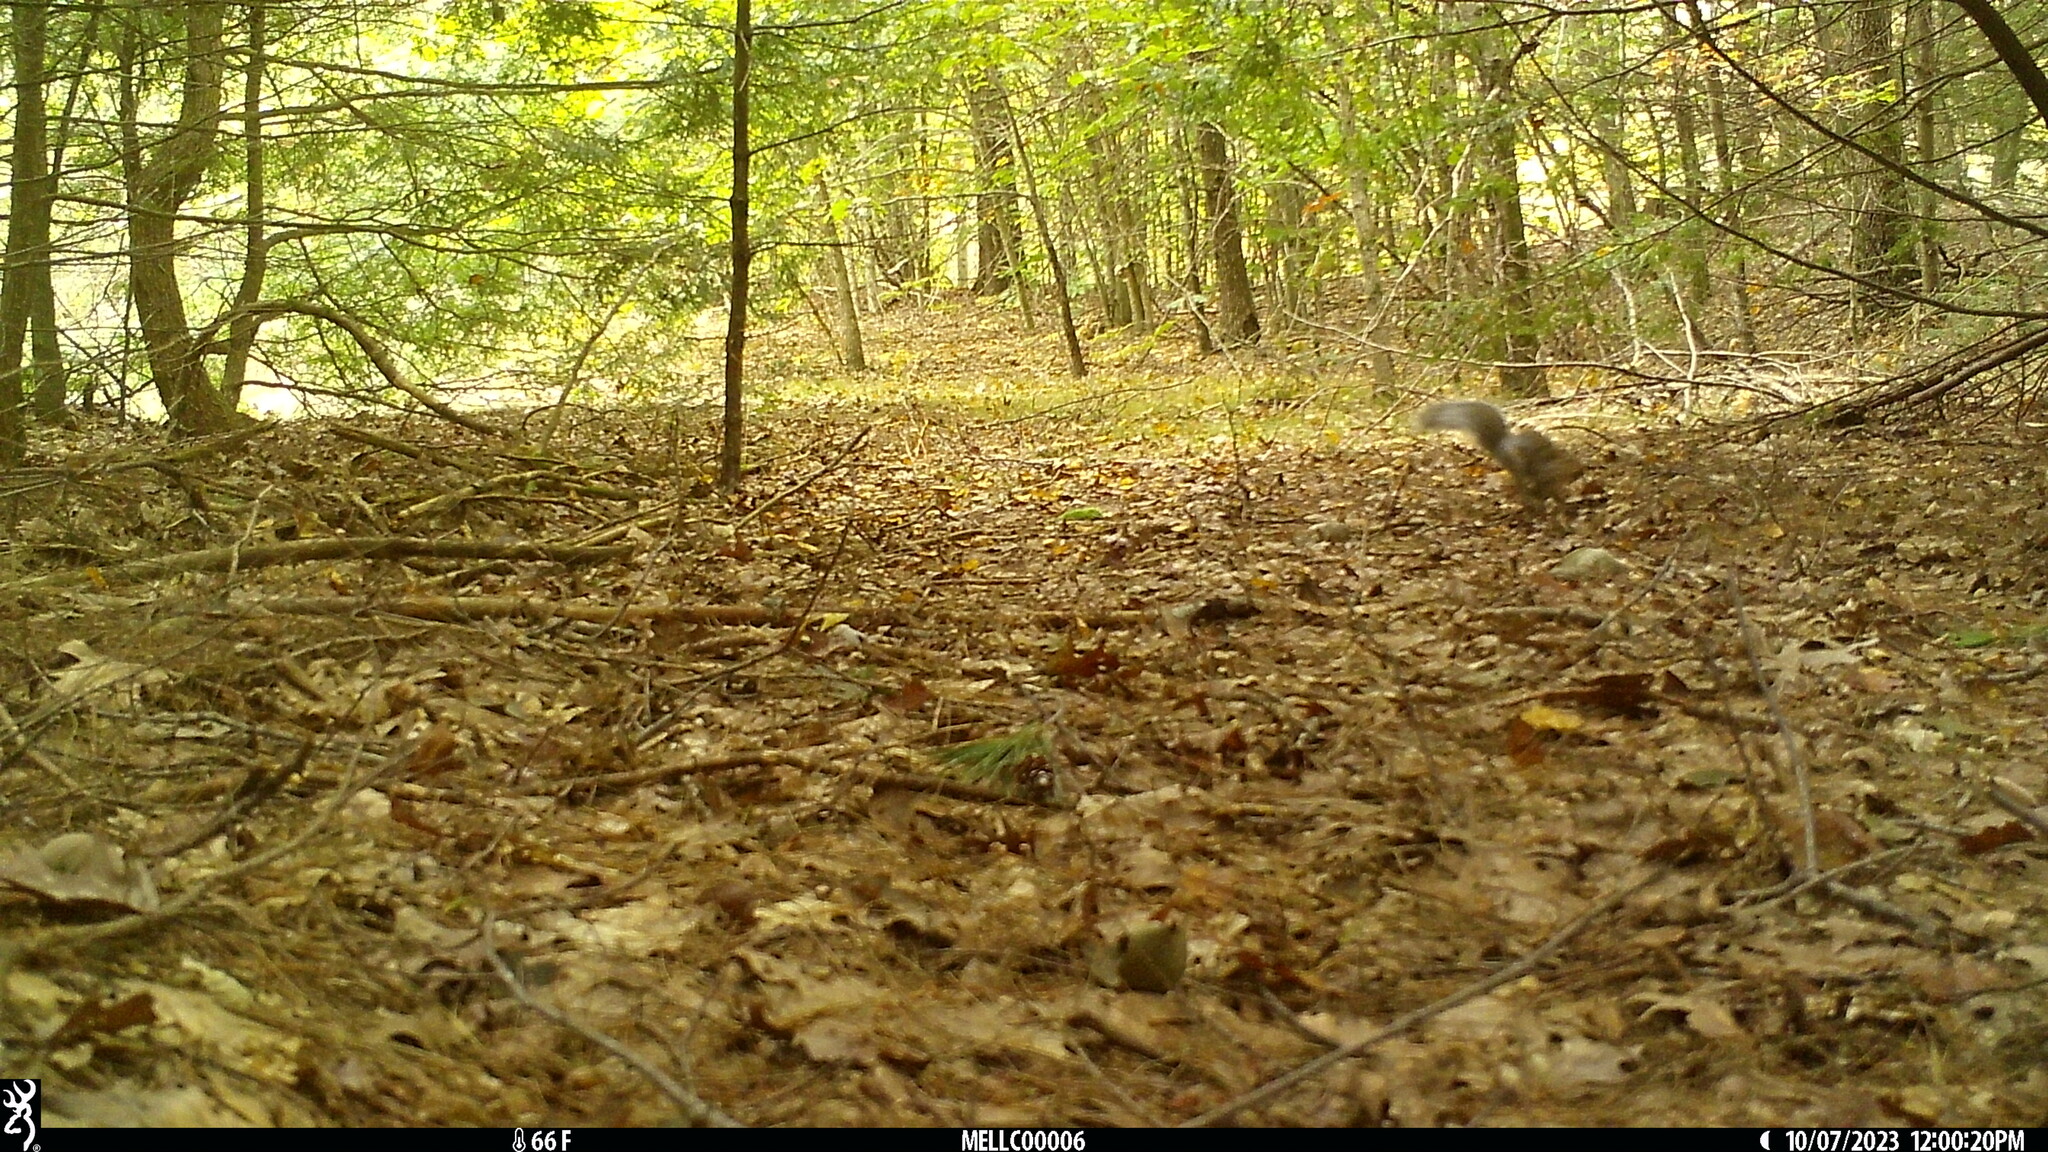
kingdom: Animalia
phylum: Chordata
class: Mammalia
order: Rodentia
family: Sciuridae
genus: Sciurus
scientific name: Sciurus carolinensis
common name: Eastern gray squirrel
